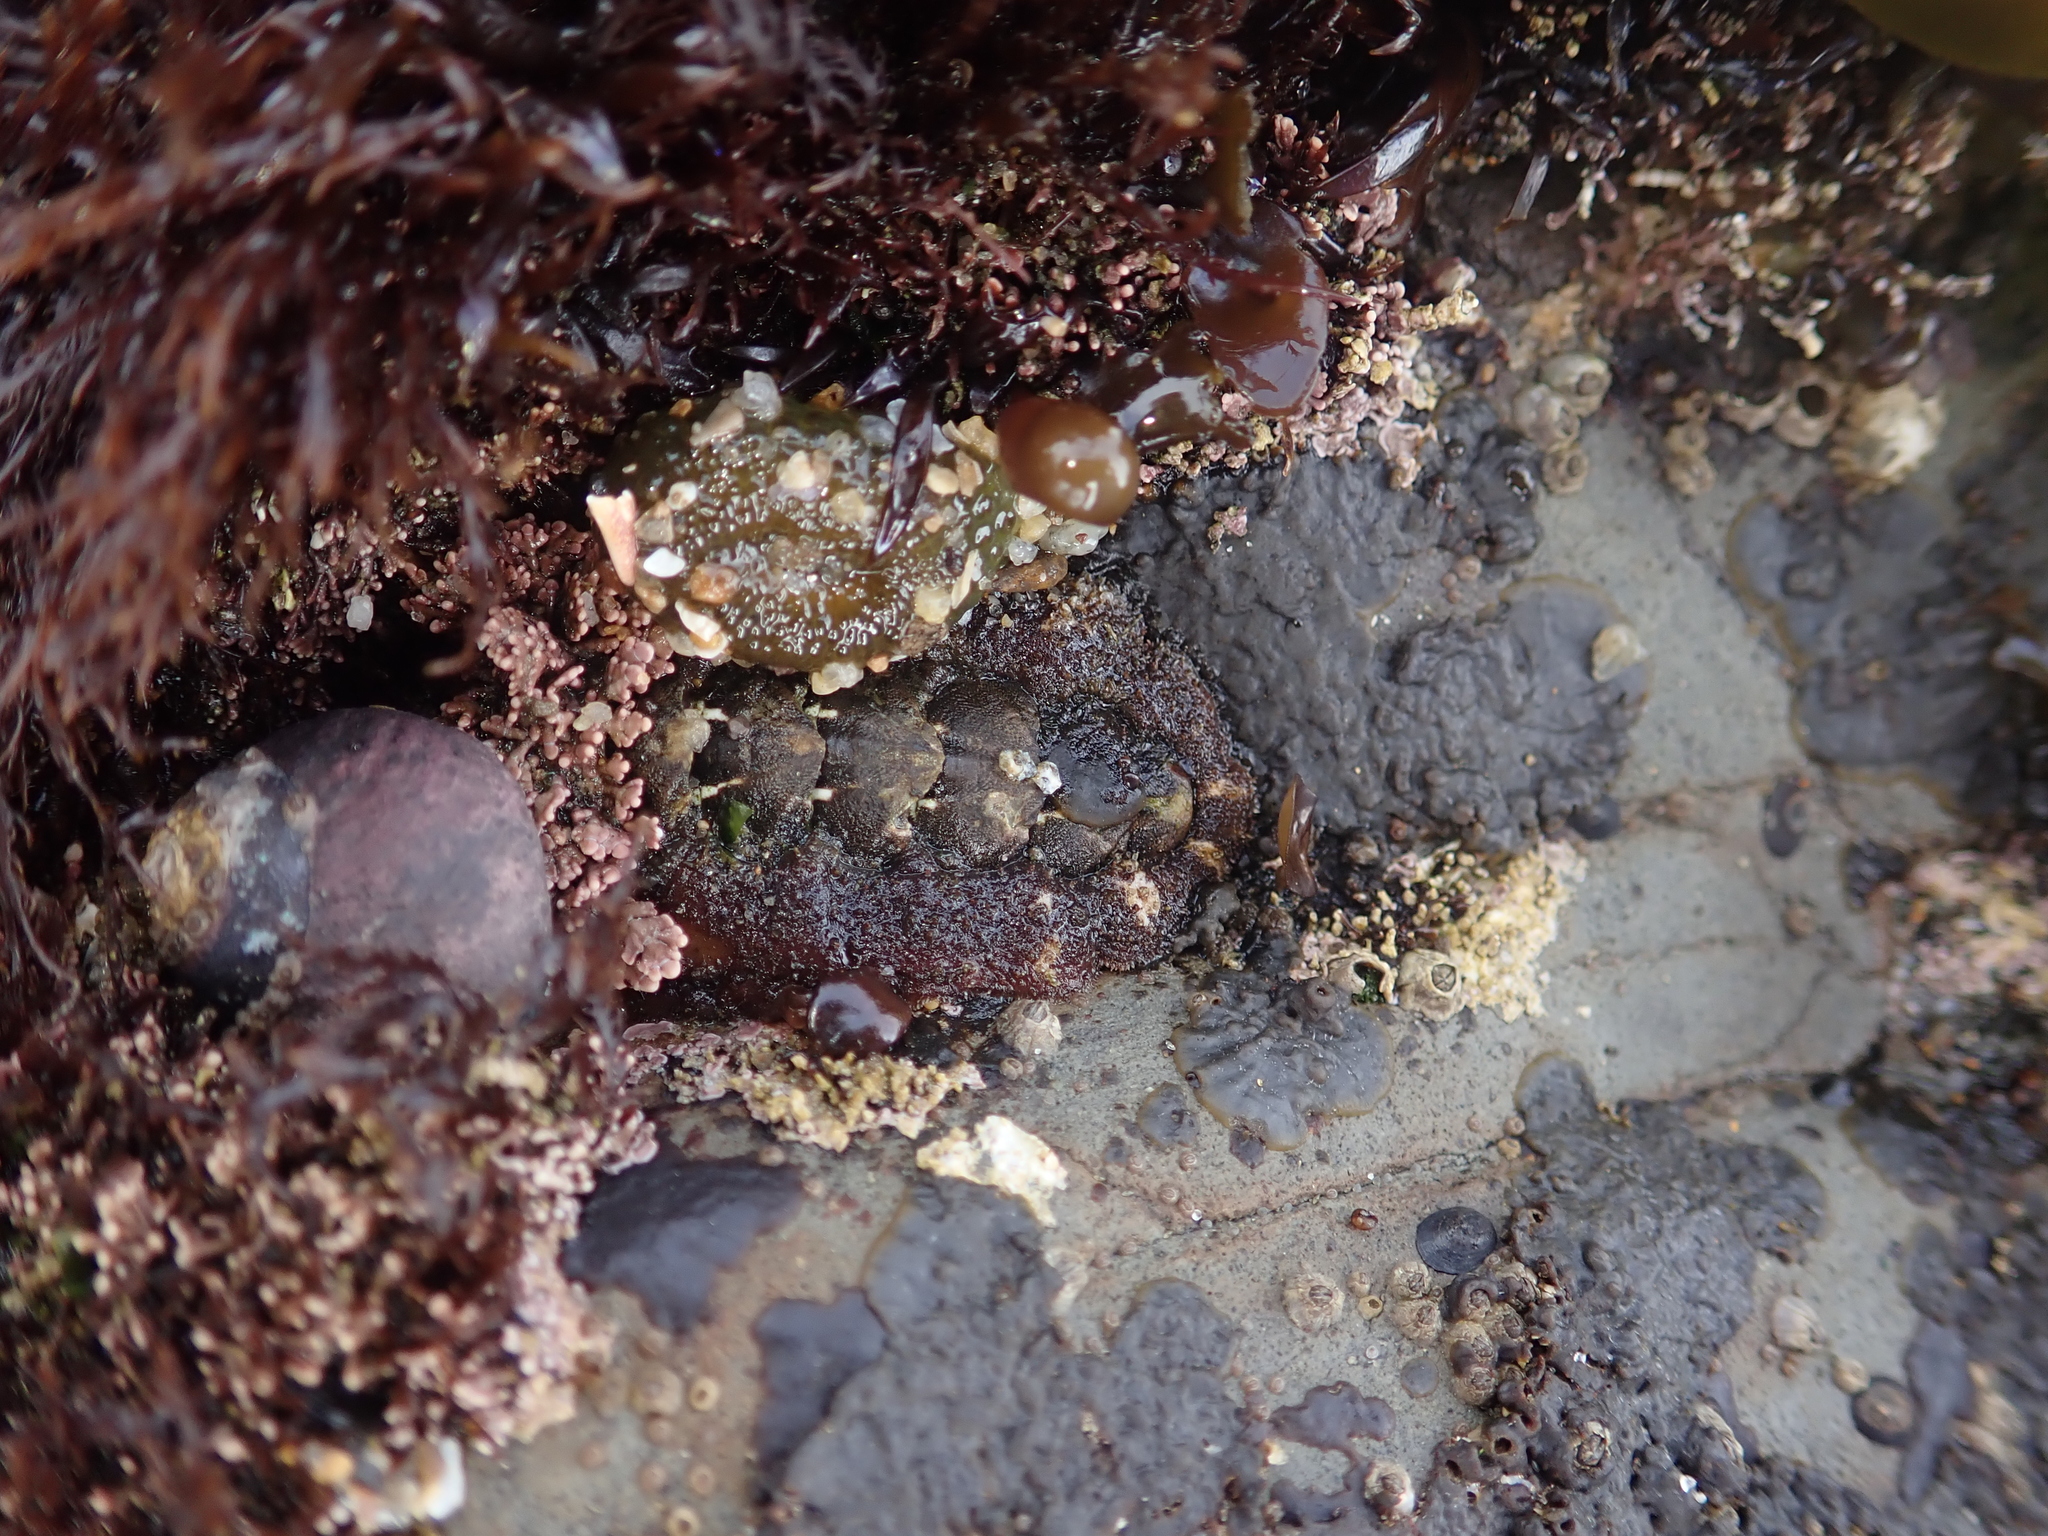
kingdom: Animalia
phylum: Mollusca
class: Polyplacophora
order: Chitonida
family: Tonicellidae
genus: Nuttallina
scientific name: Nuttallina californica
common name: California nuttall chiton
